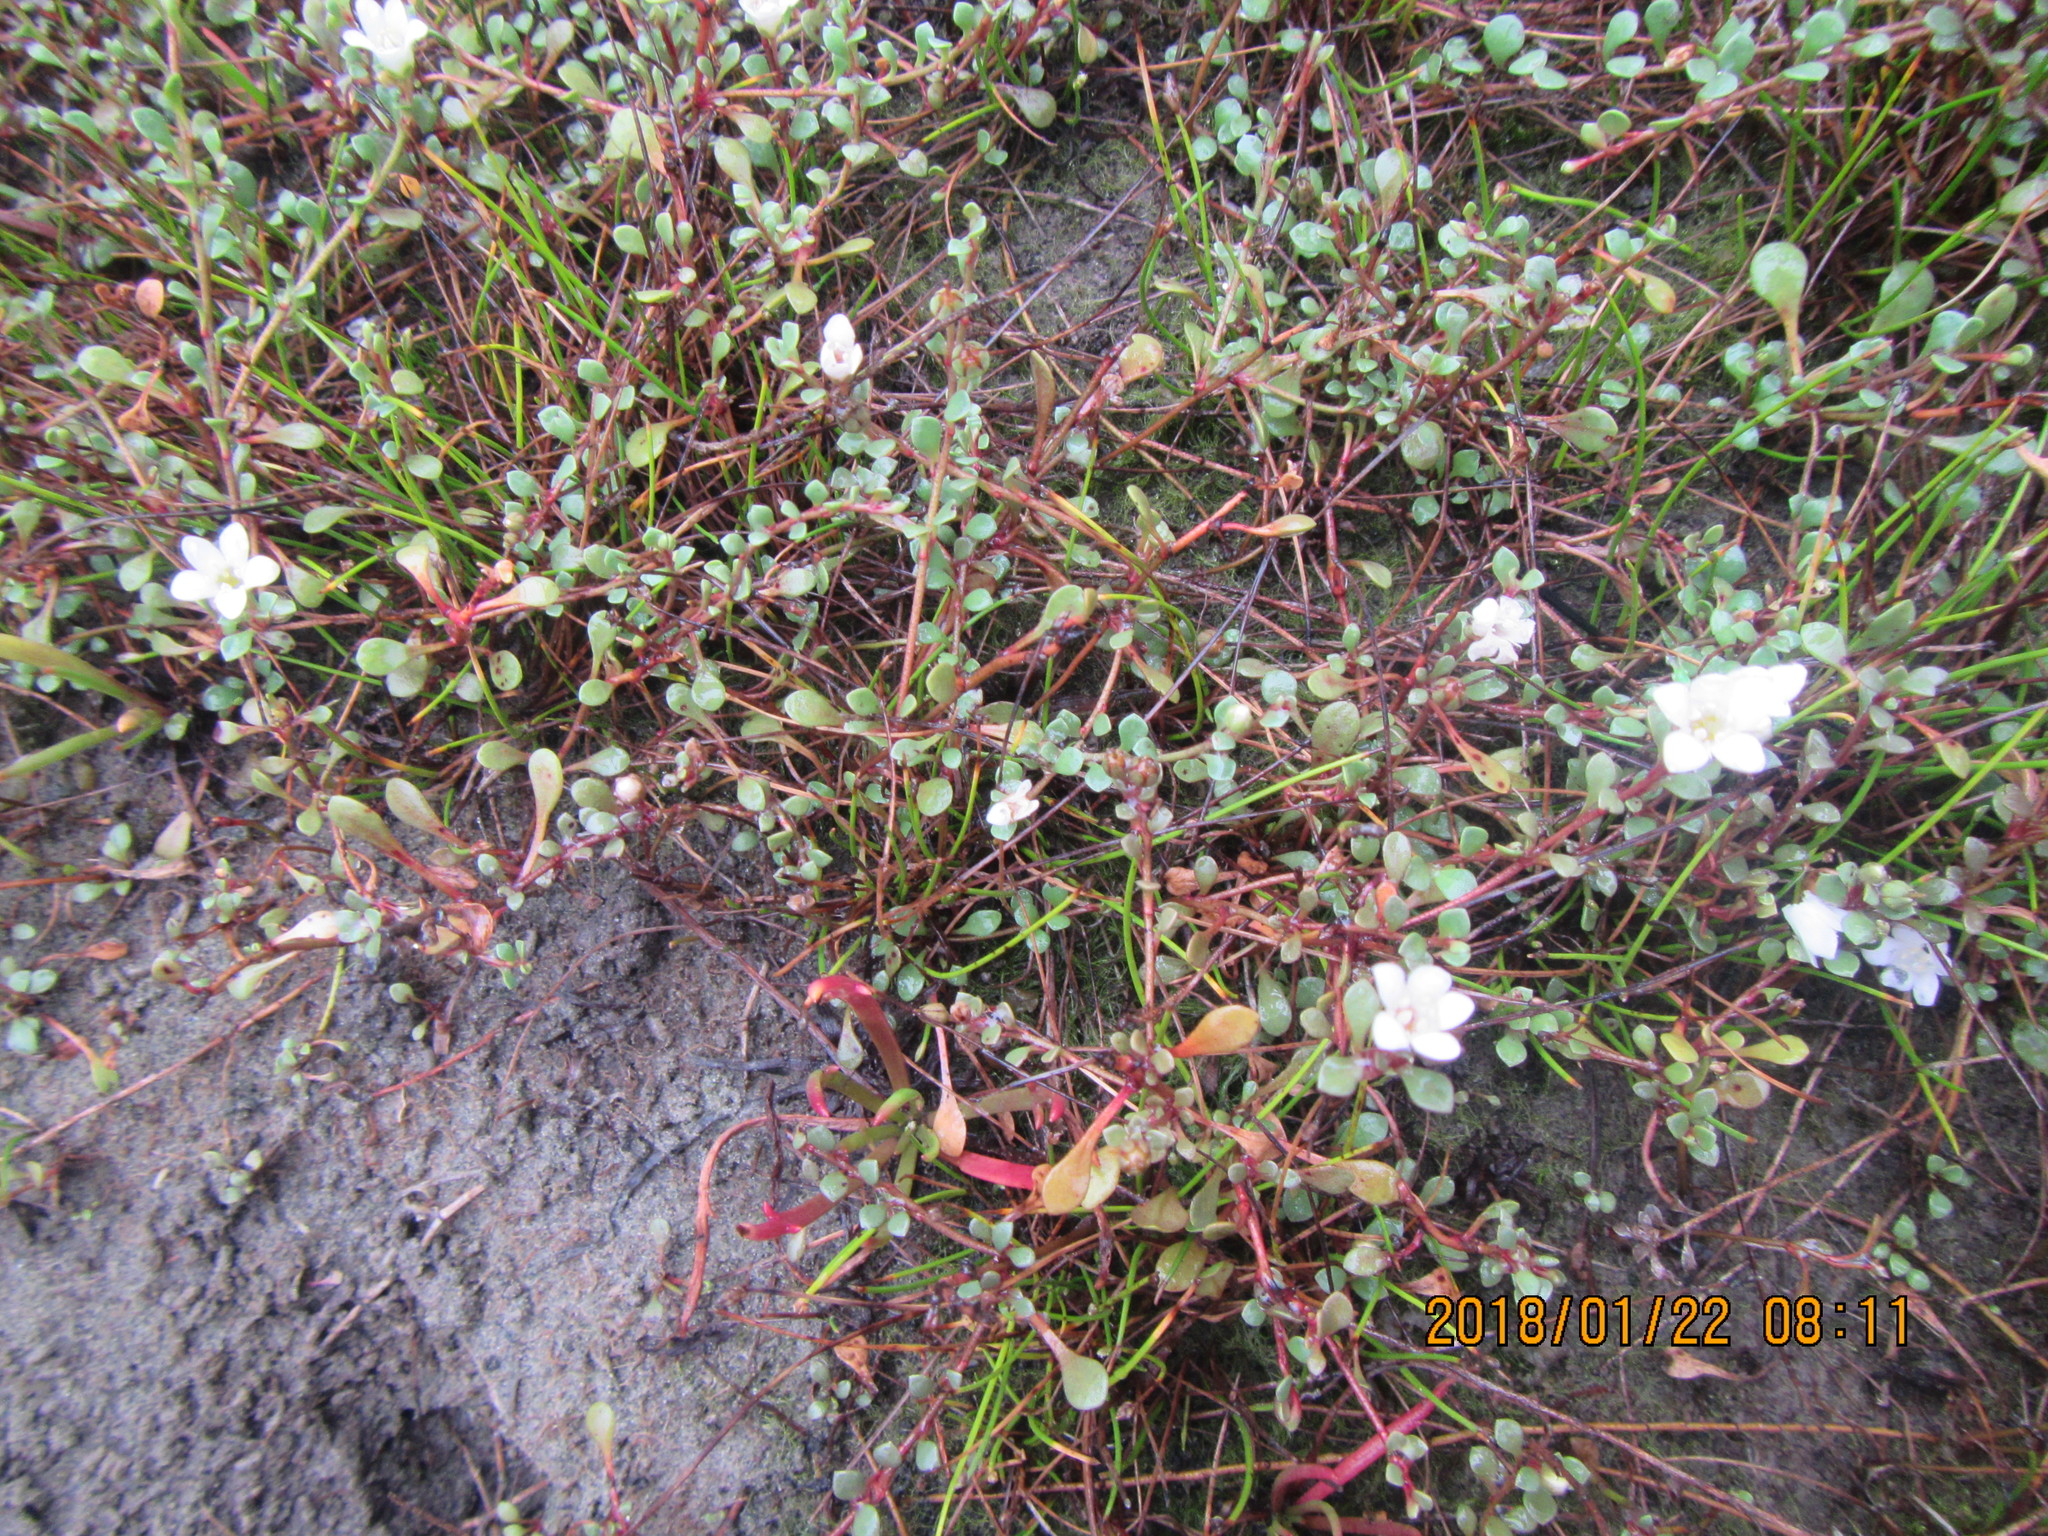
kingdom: Plantae
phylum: Tracheophyta
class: Magnoliopsida
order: Ericales
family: Primulaceae
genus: Samolus
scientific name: Samolus repens
